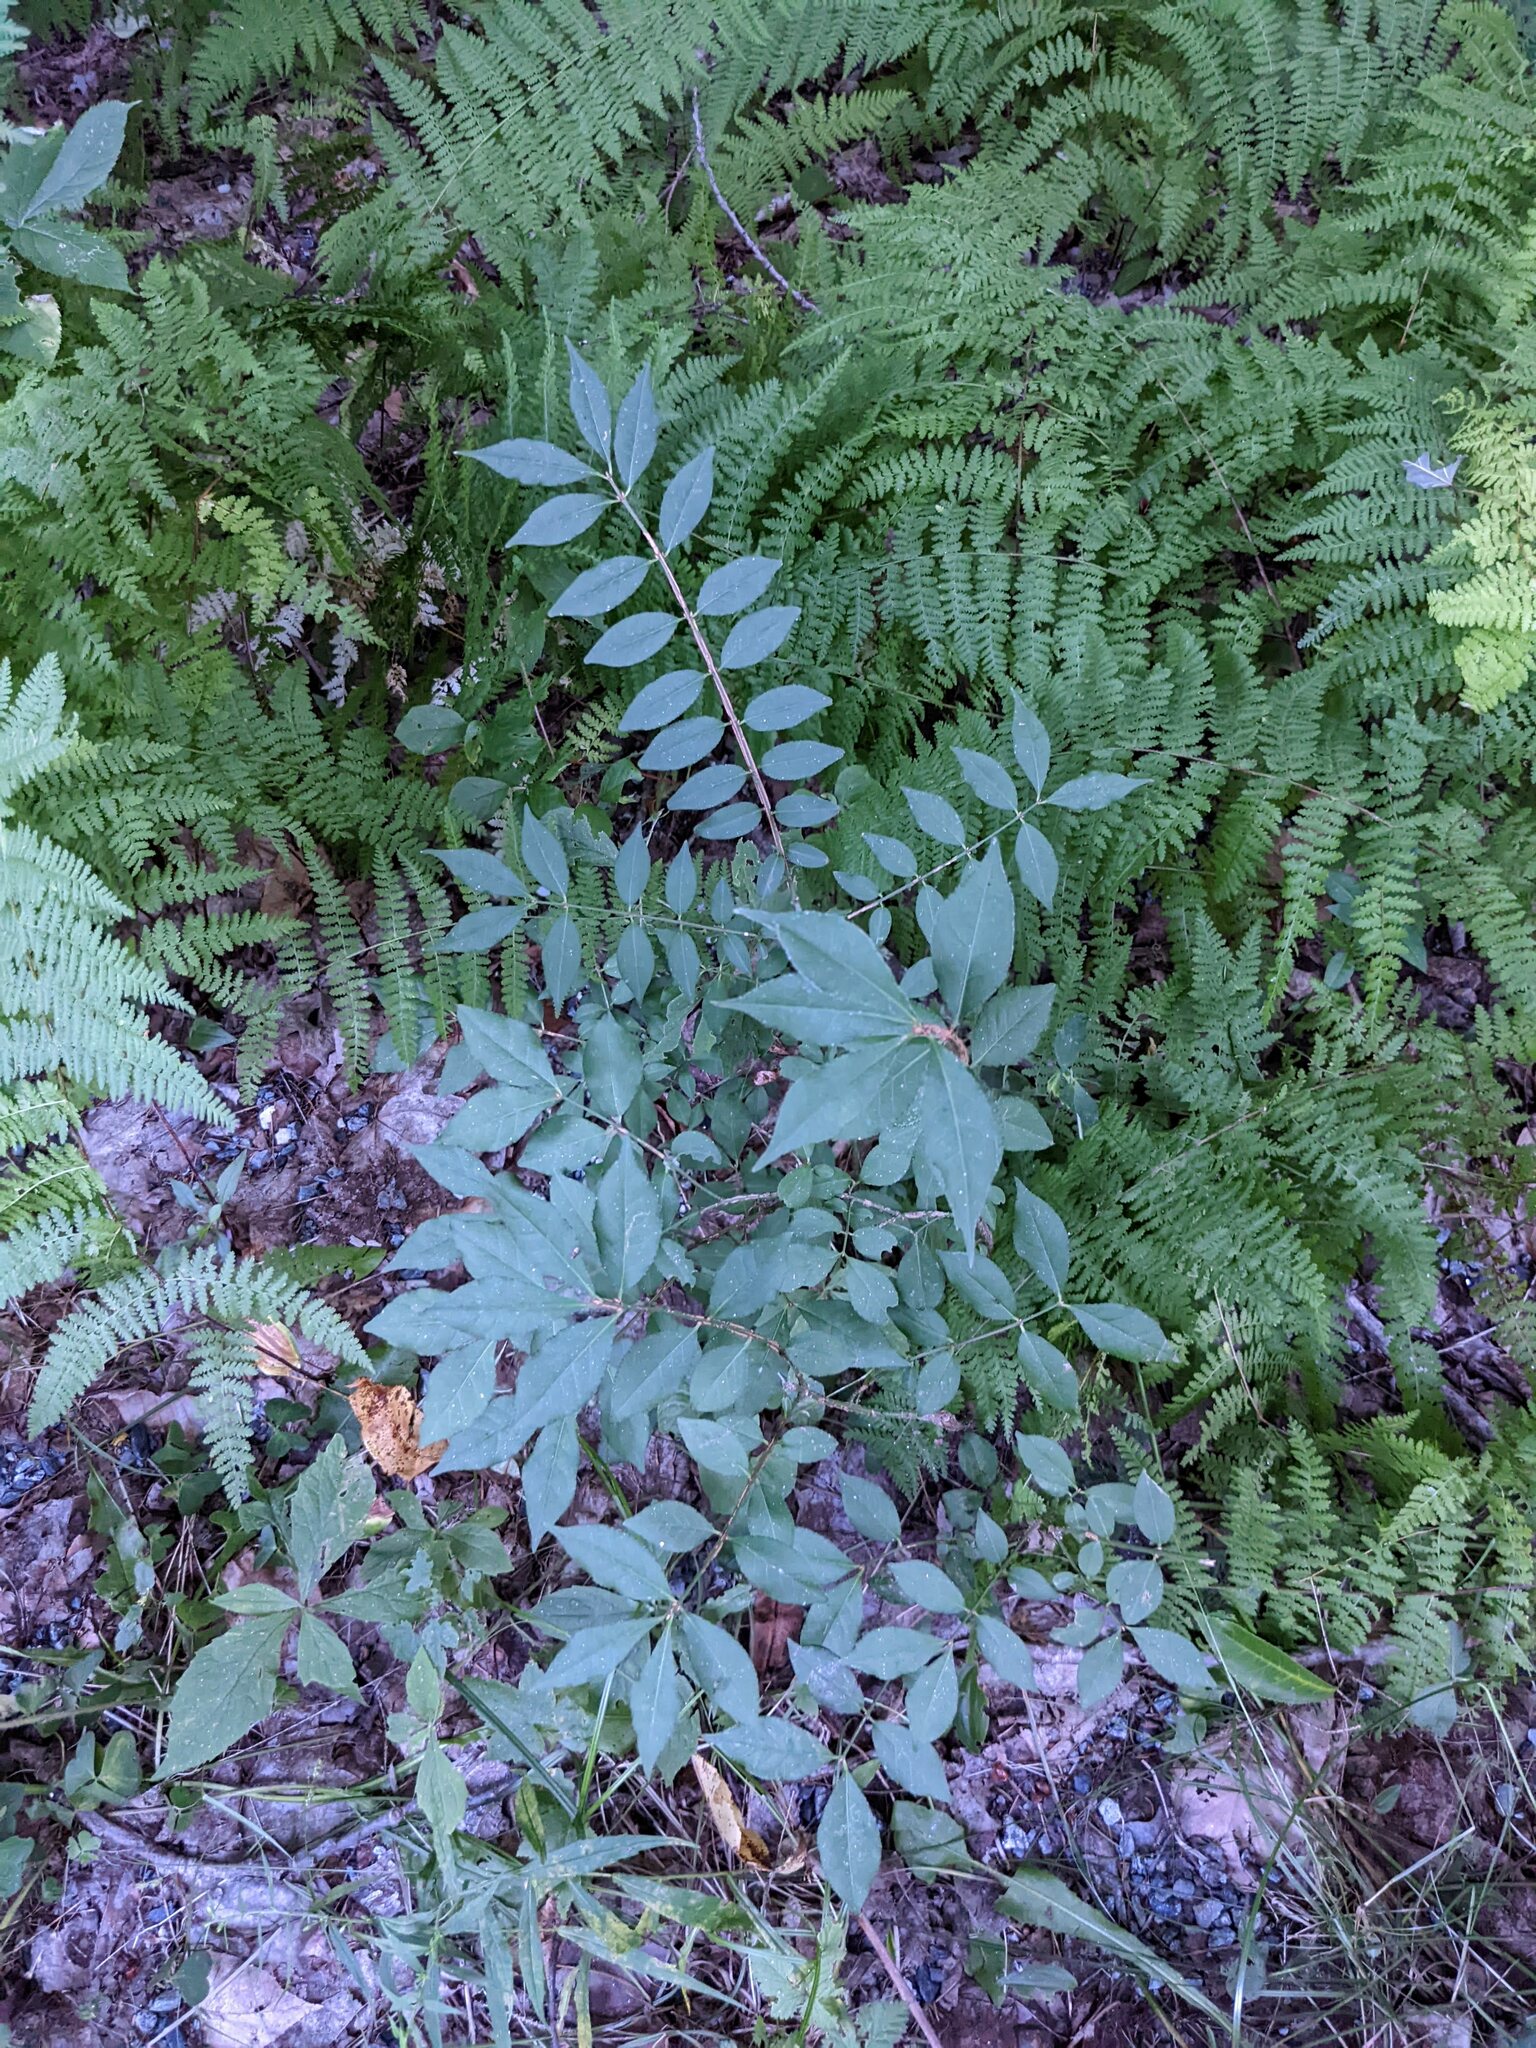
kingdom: Plantae
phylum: Tracheophyta
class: Magnoliopsida
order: Celastrales
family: Celastraceae
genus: Euonymus
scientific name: Euonymus alatus
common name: Winged euonymus
